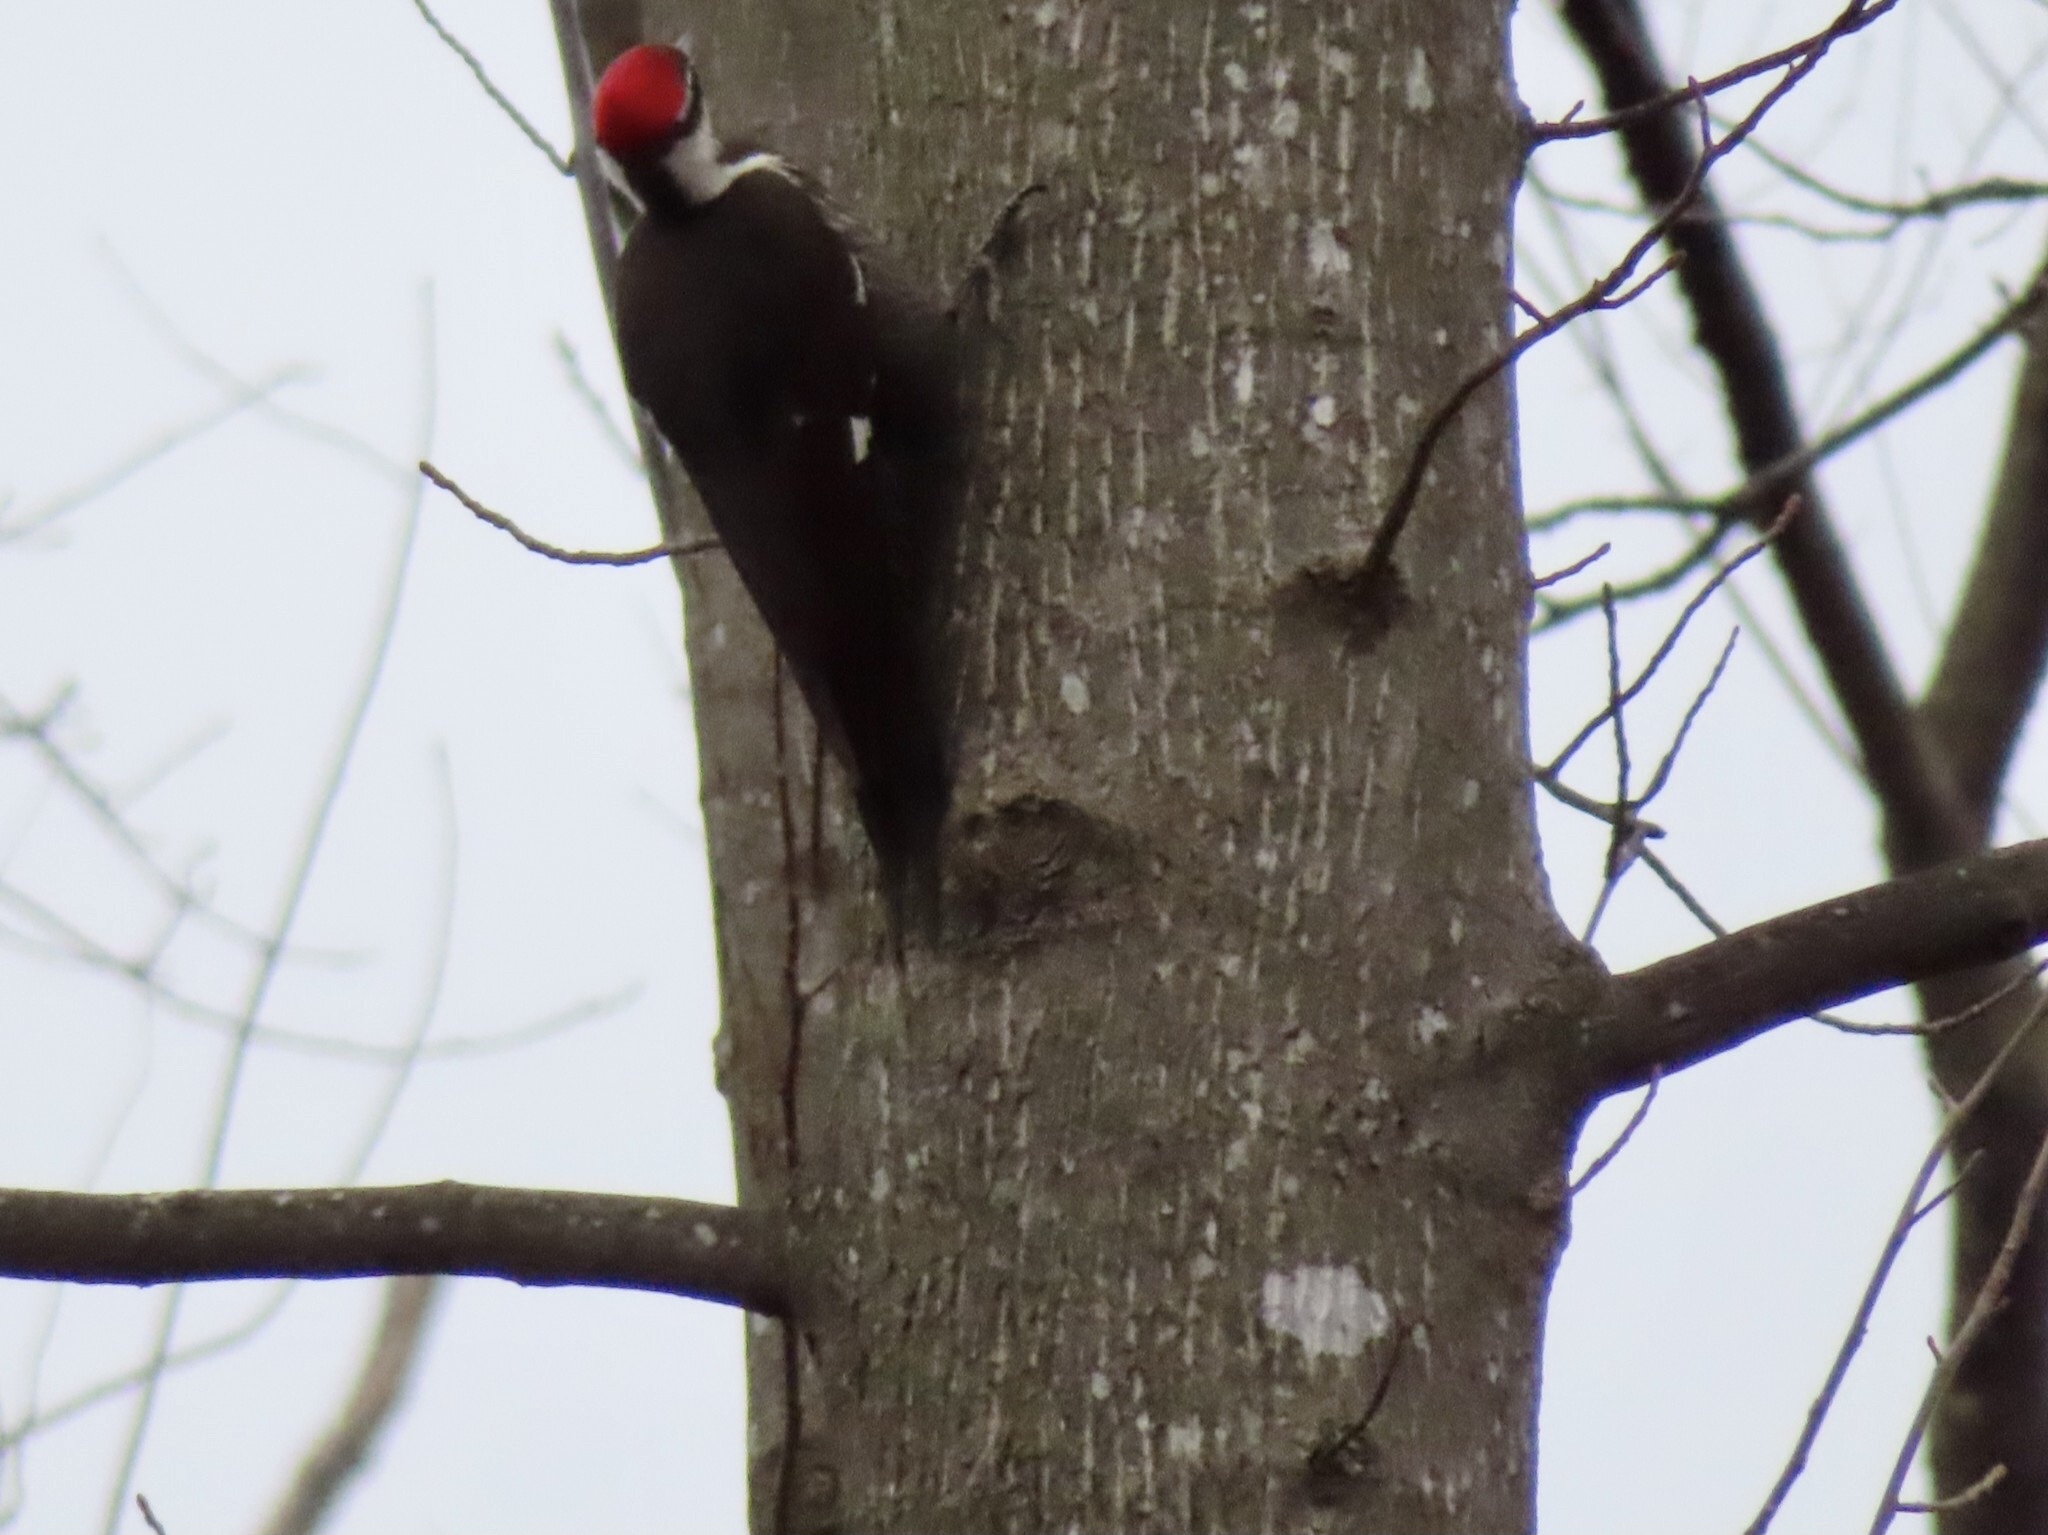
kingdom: Animalia
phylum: Chordata
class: Aves
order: Piciformes
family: Picidae
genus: Dryocopus
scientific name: Dryocopus pileatus
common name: Pileated woodpecker
